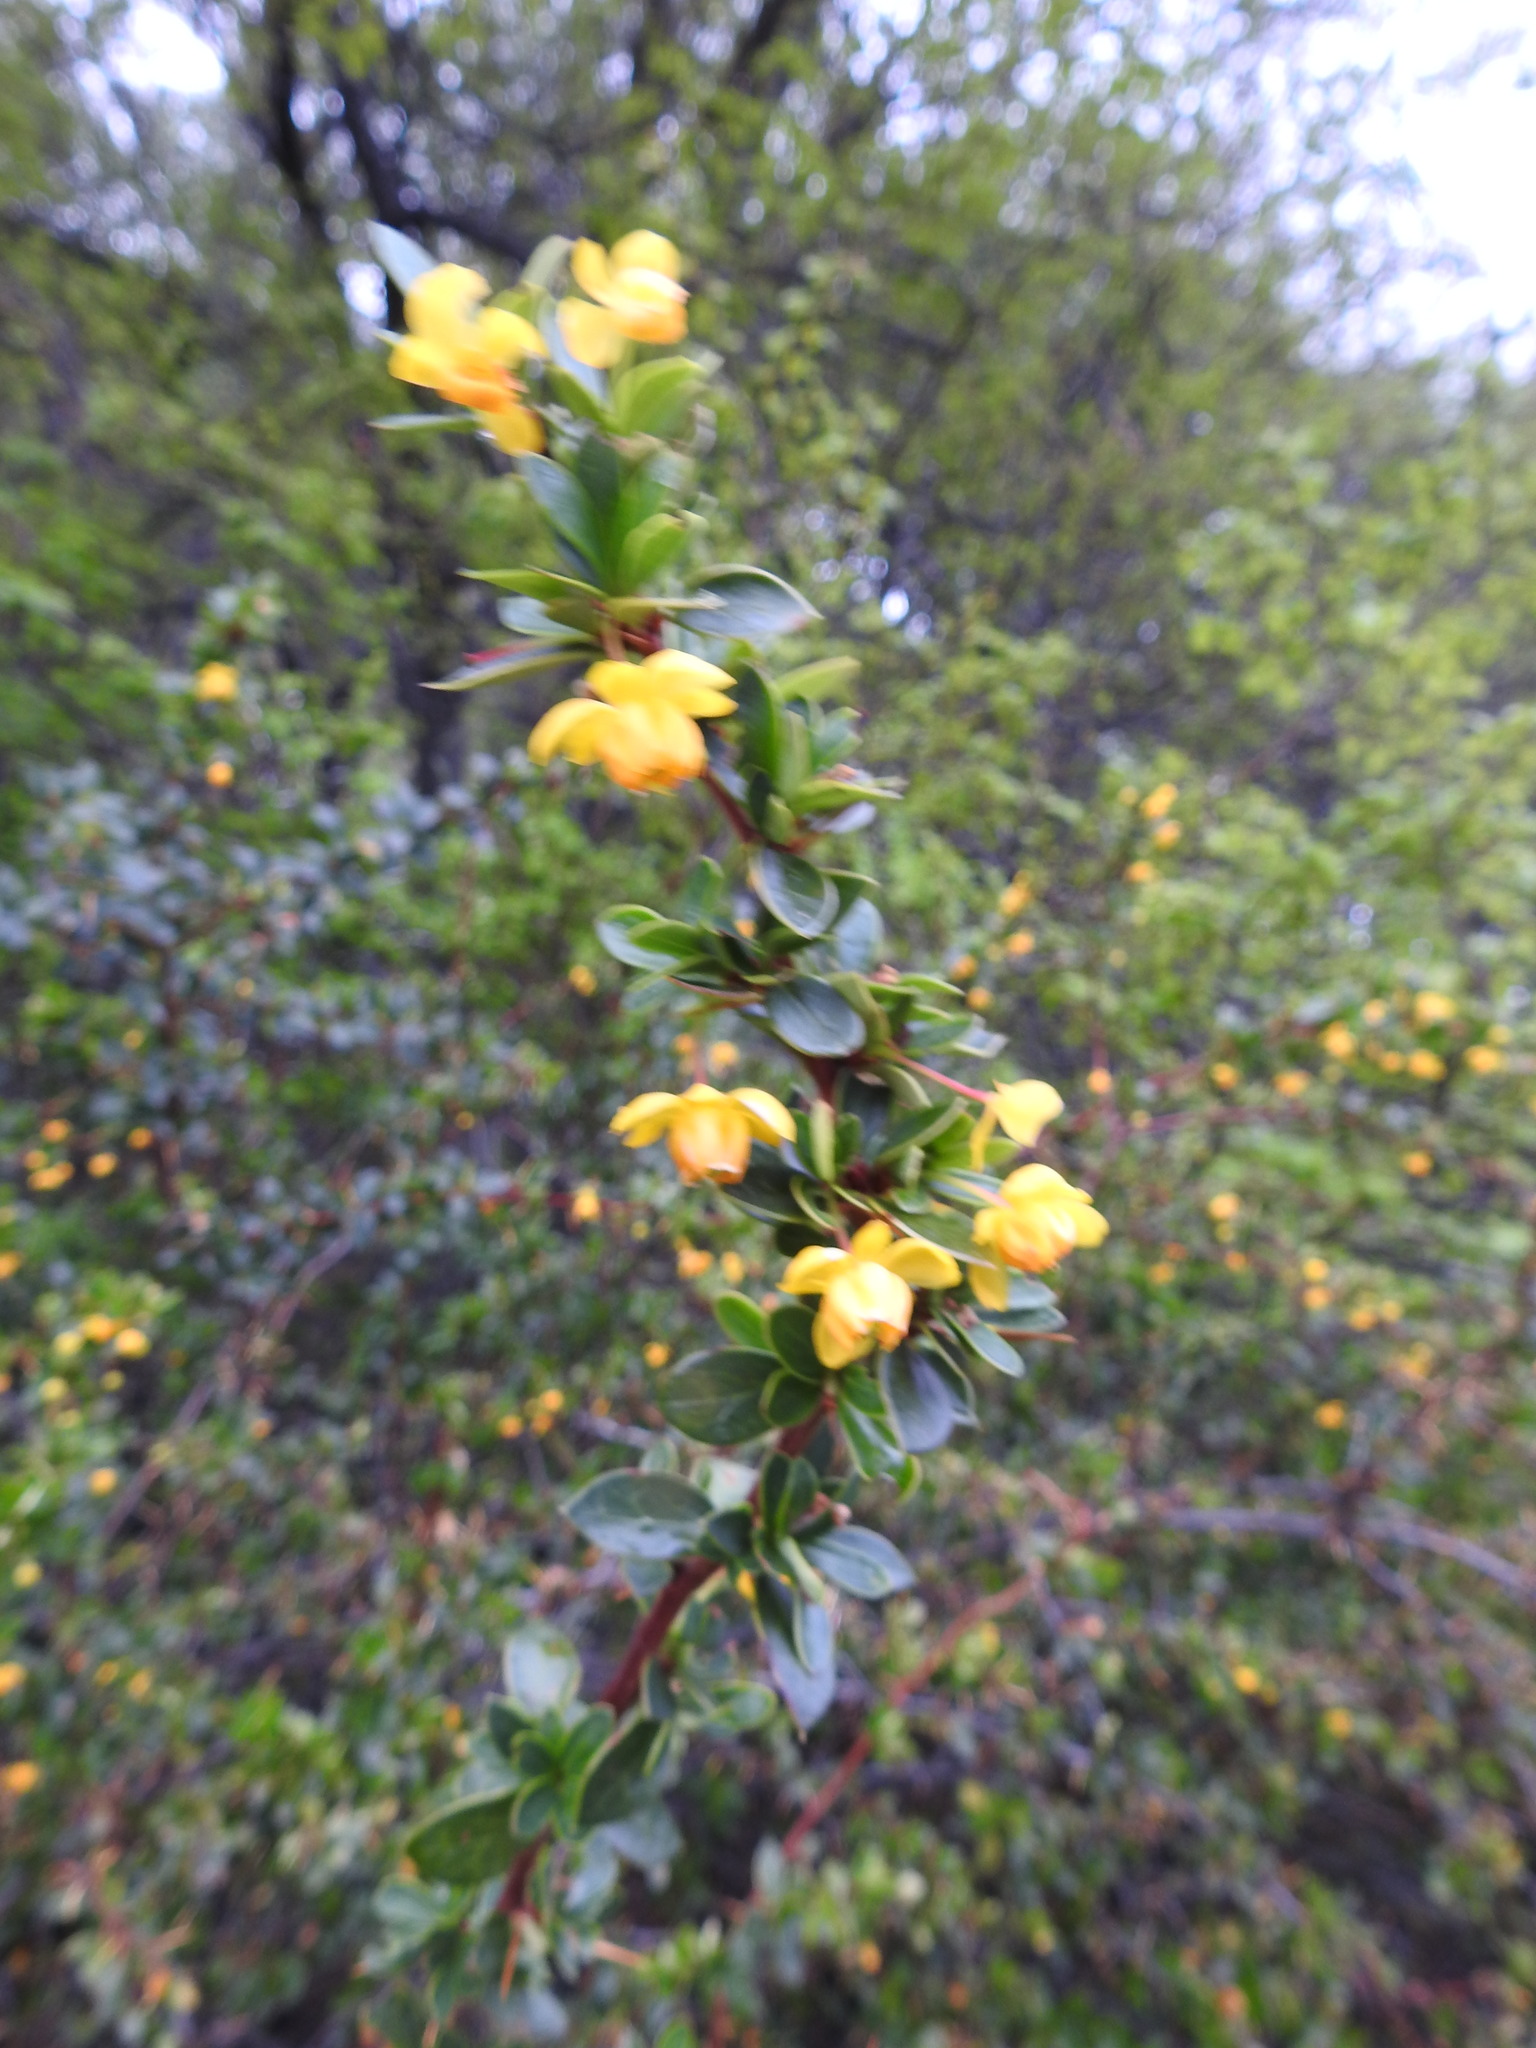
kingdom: Plantae
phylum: Tracheophyta
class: Magnoliopsida
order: Ranunculales
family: Berberidaceae
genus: Berberis
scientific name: Berberis microphylla
